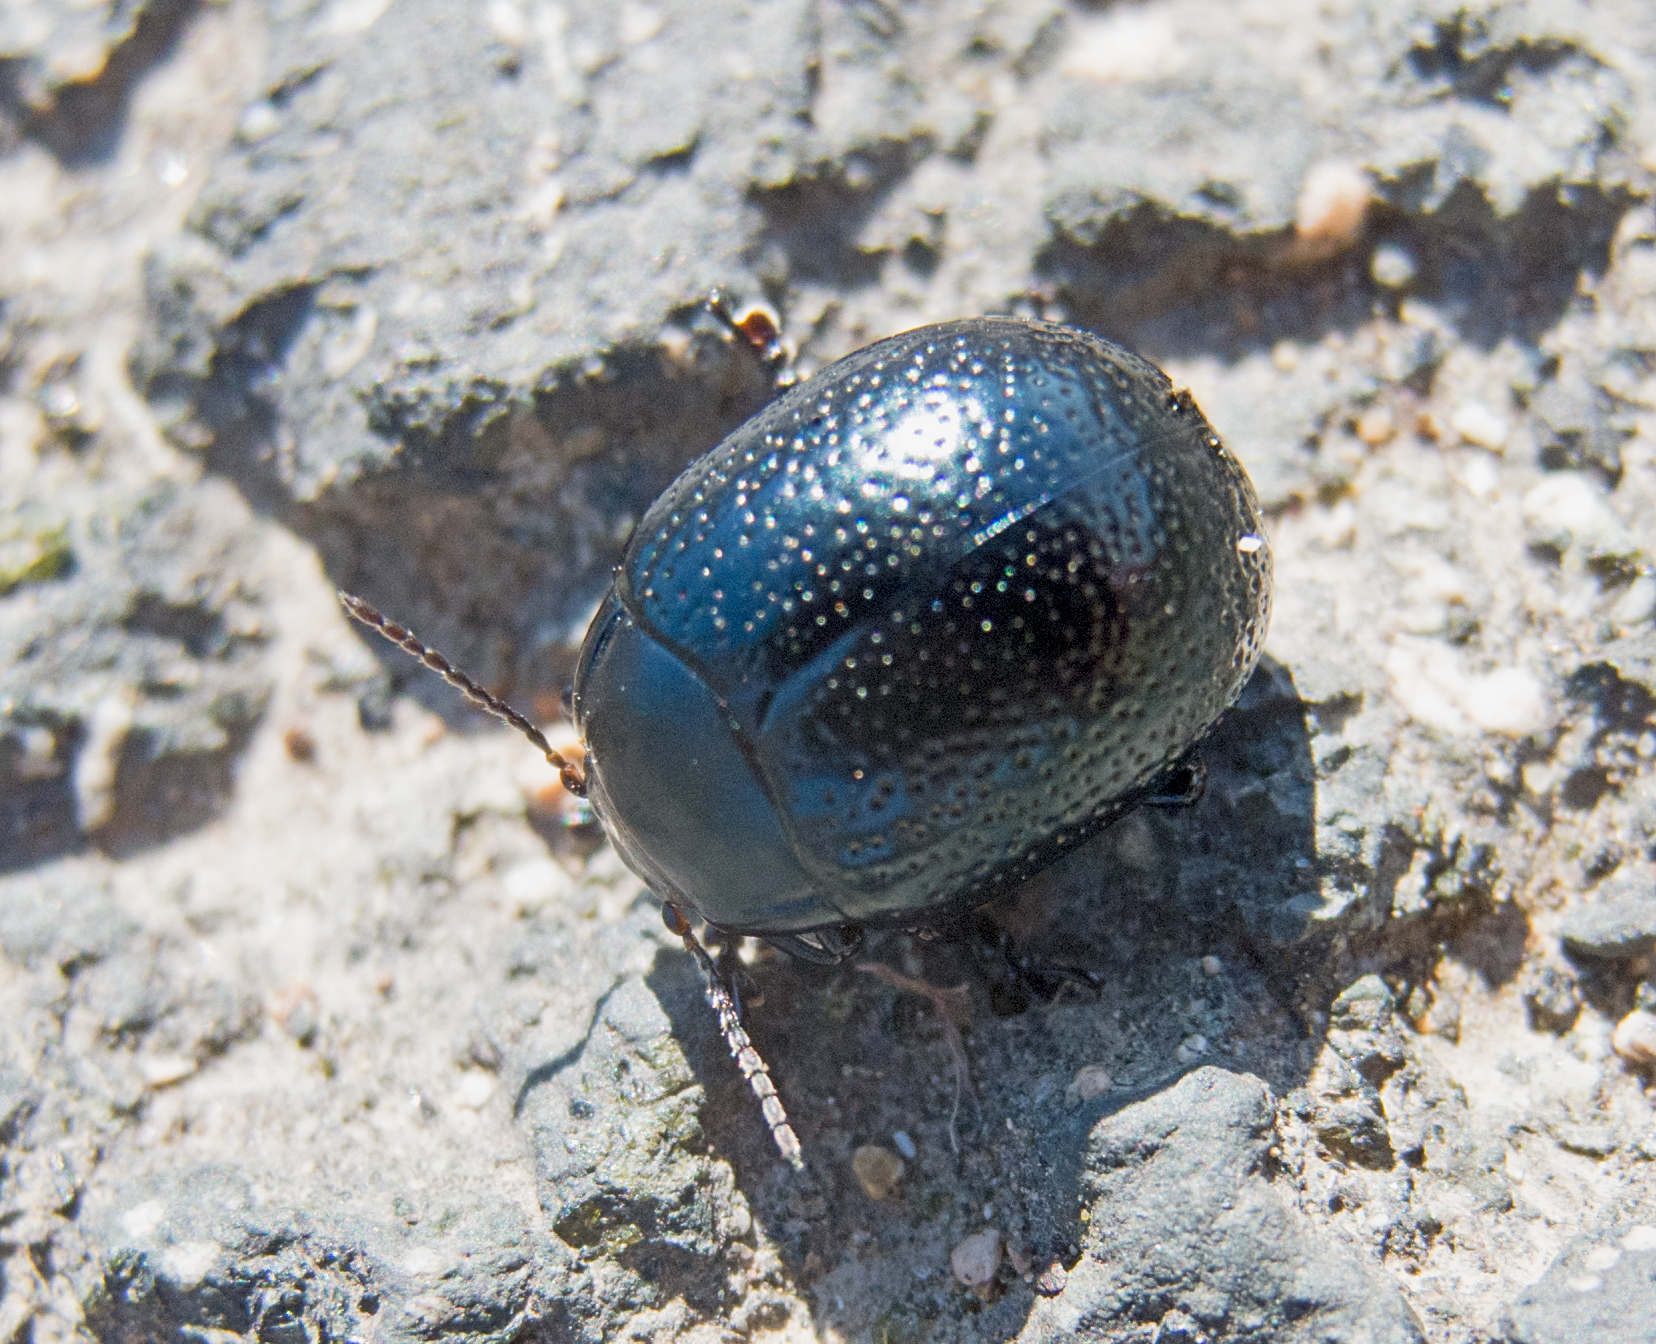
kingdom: Animalia
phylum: Arthropoda
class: Insecta
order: Coleoptera
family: Chrysomelidae
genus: Chrysolina
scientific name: Chrysolina vernalis
